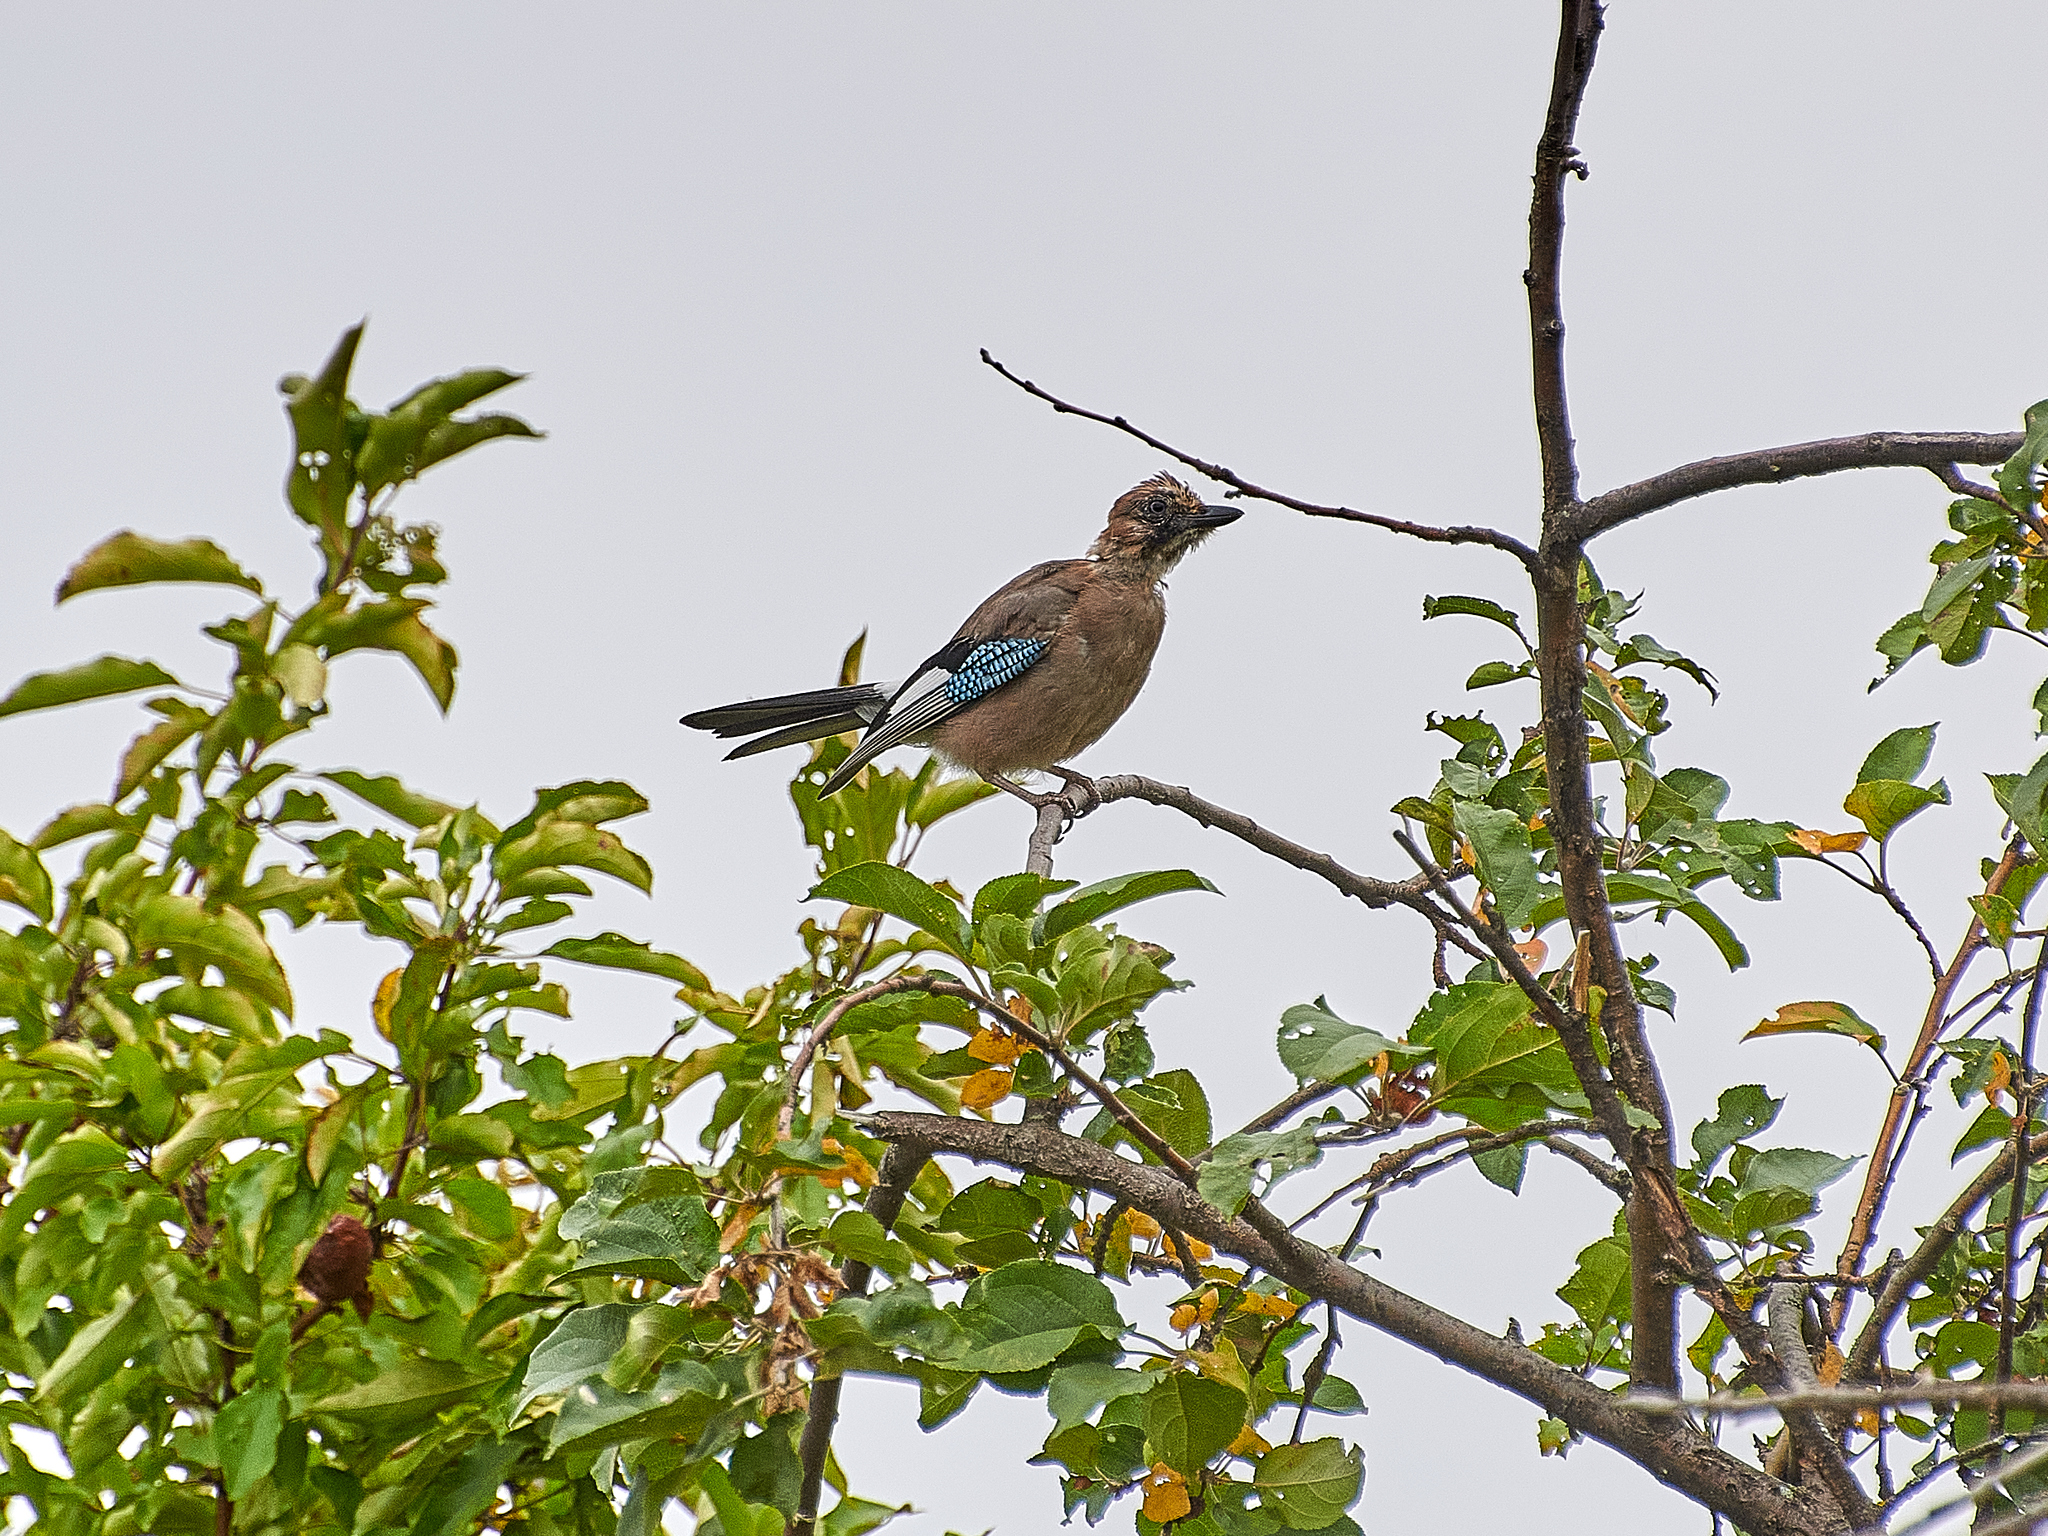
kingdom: Animalia
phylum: Chordata
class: Aves
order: Passeriformes
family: Corvidae
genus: Garrulus
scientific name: Garrulus glandarius
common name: Eurasian jay
